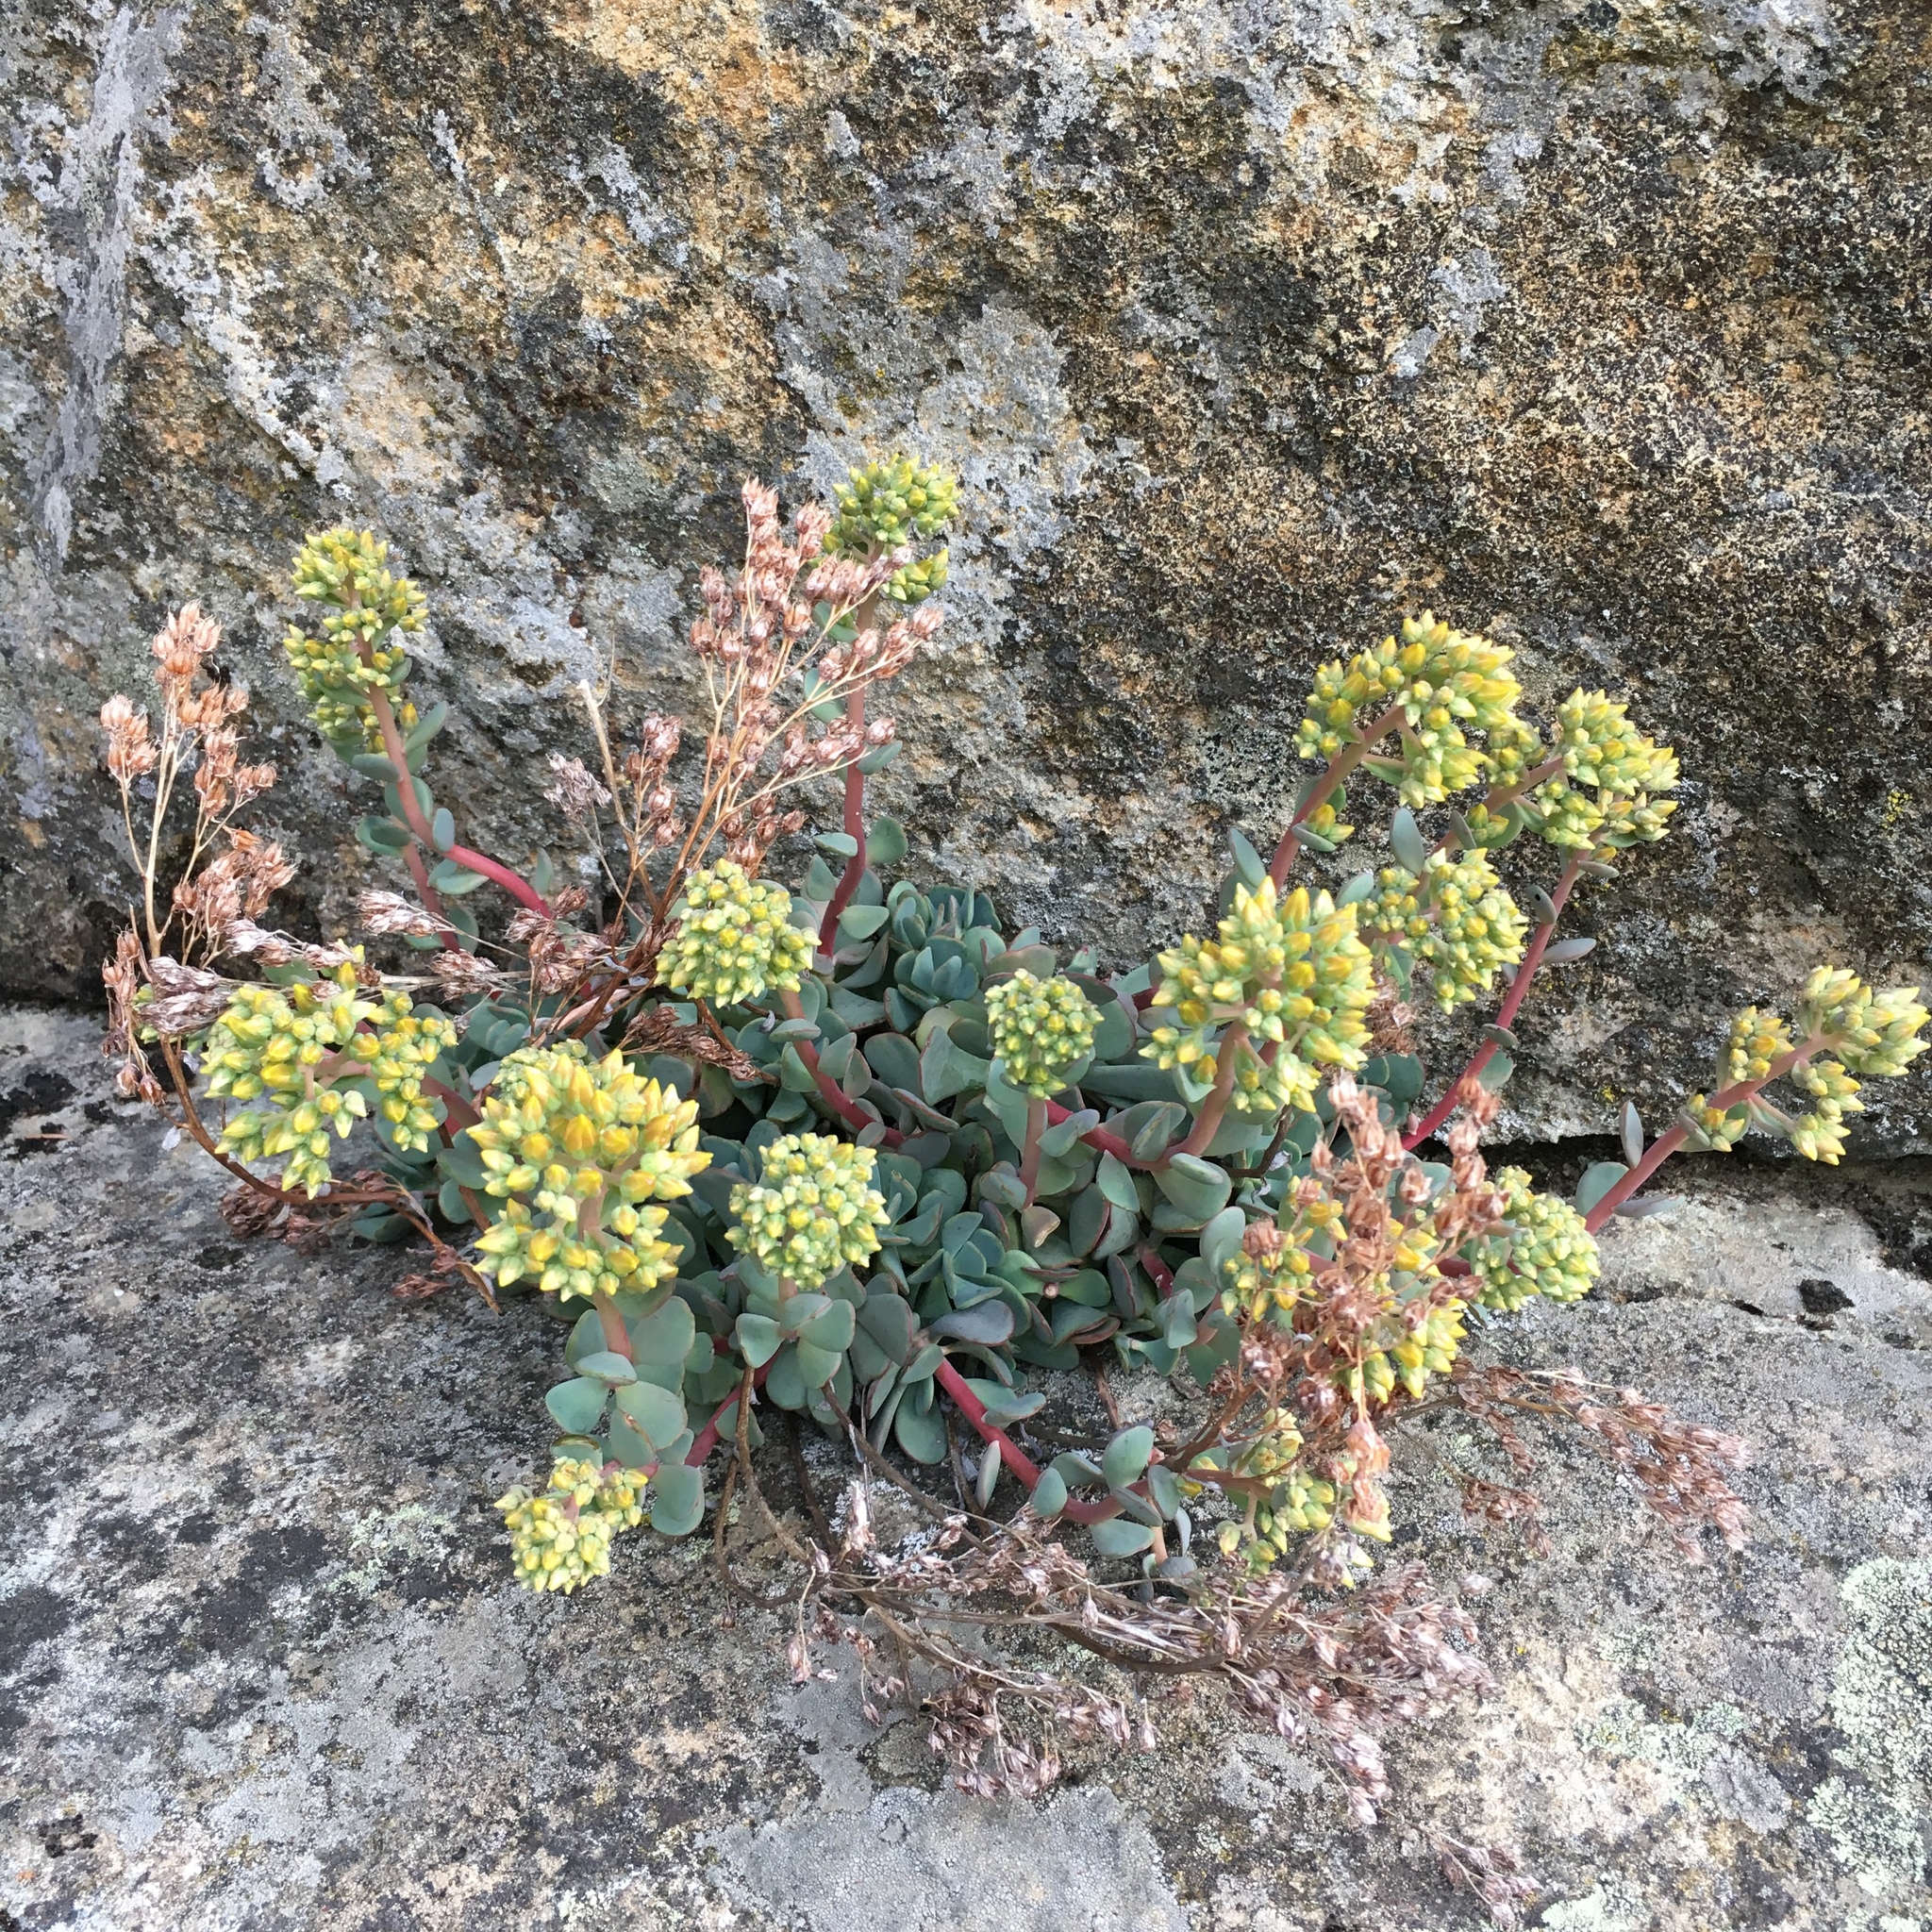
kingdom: Plantae
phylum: Tracheophyta
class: Magnoliopsida
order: Saxifragales
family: Crassulaceae
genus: Sedum
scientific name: Sedum spathulifolium
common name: Colorado stonecrop
